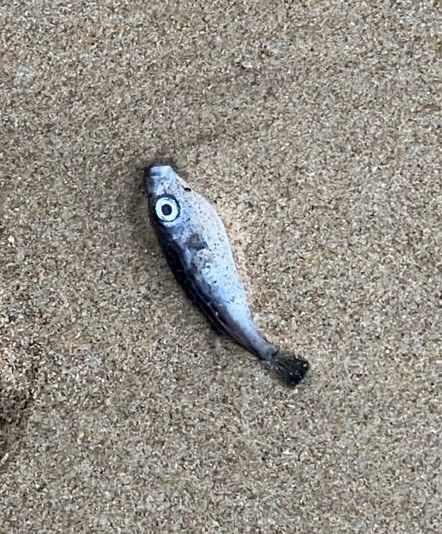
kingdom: Animalia
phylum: Chordata
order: Tetraodontiformes
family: Tetraodontidae
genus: Pelagocephalus
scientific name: Pelagocephalus marki
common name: Rippled blaasop
